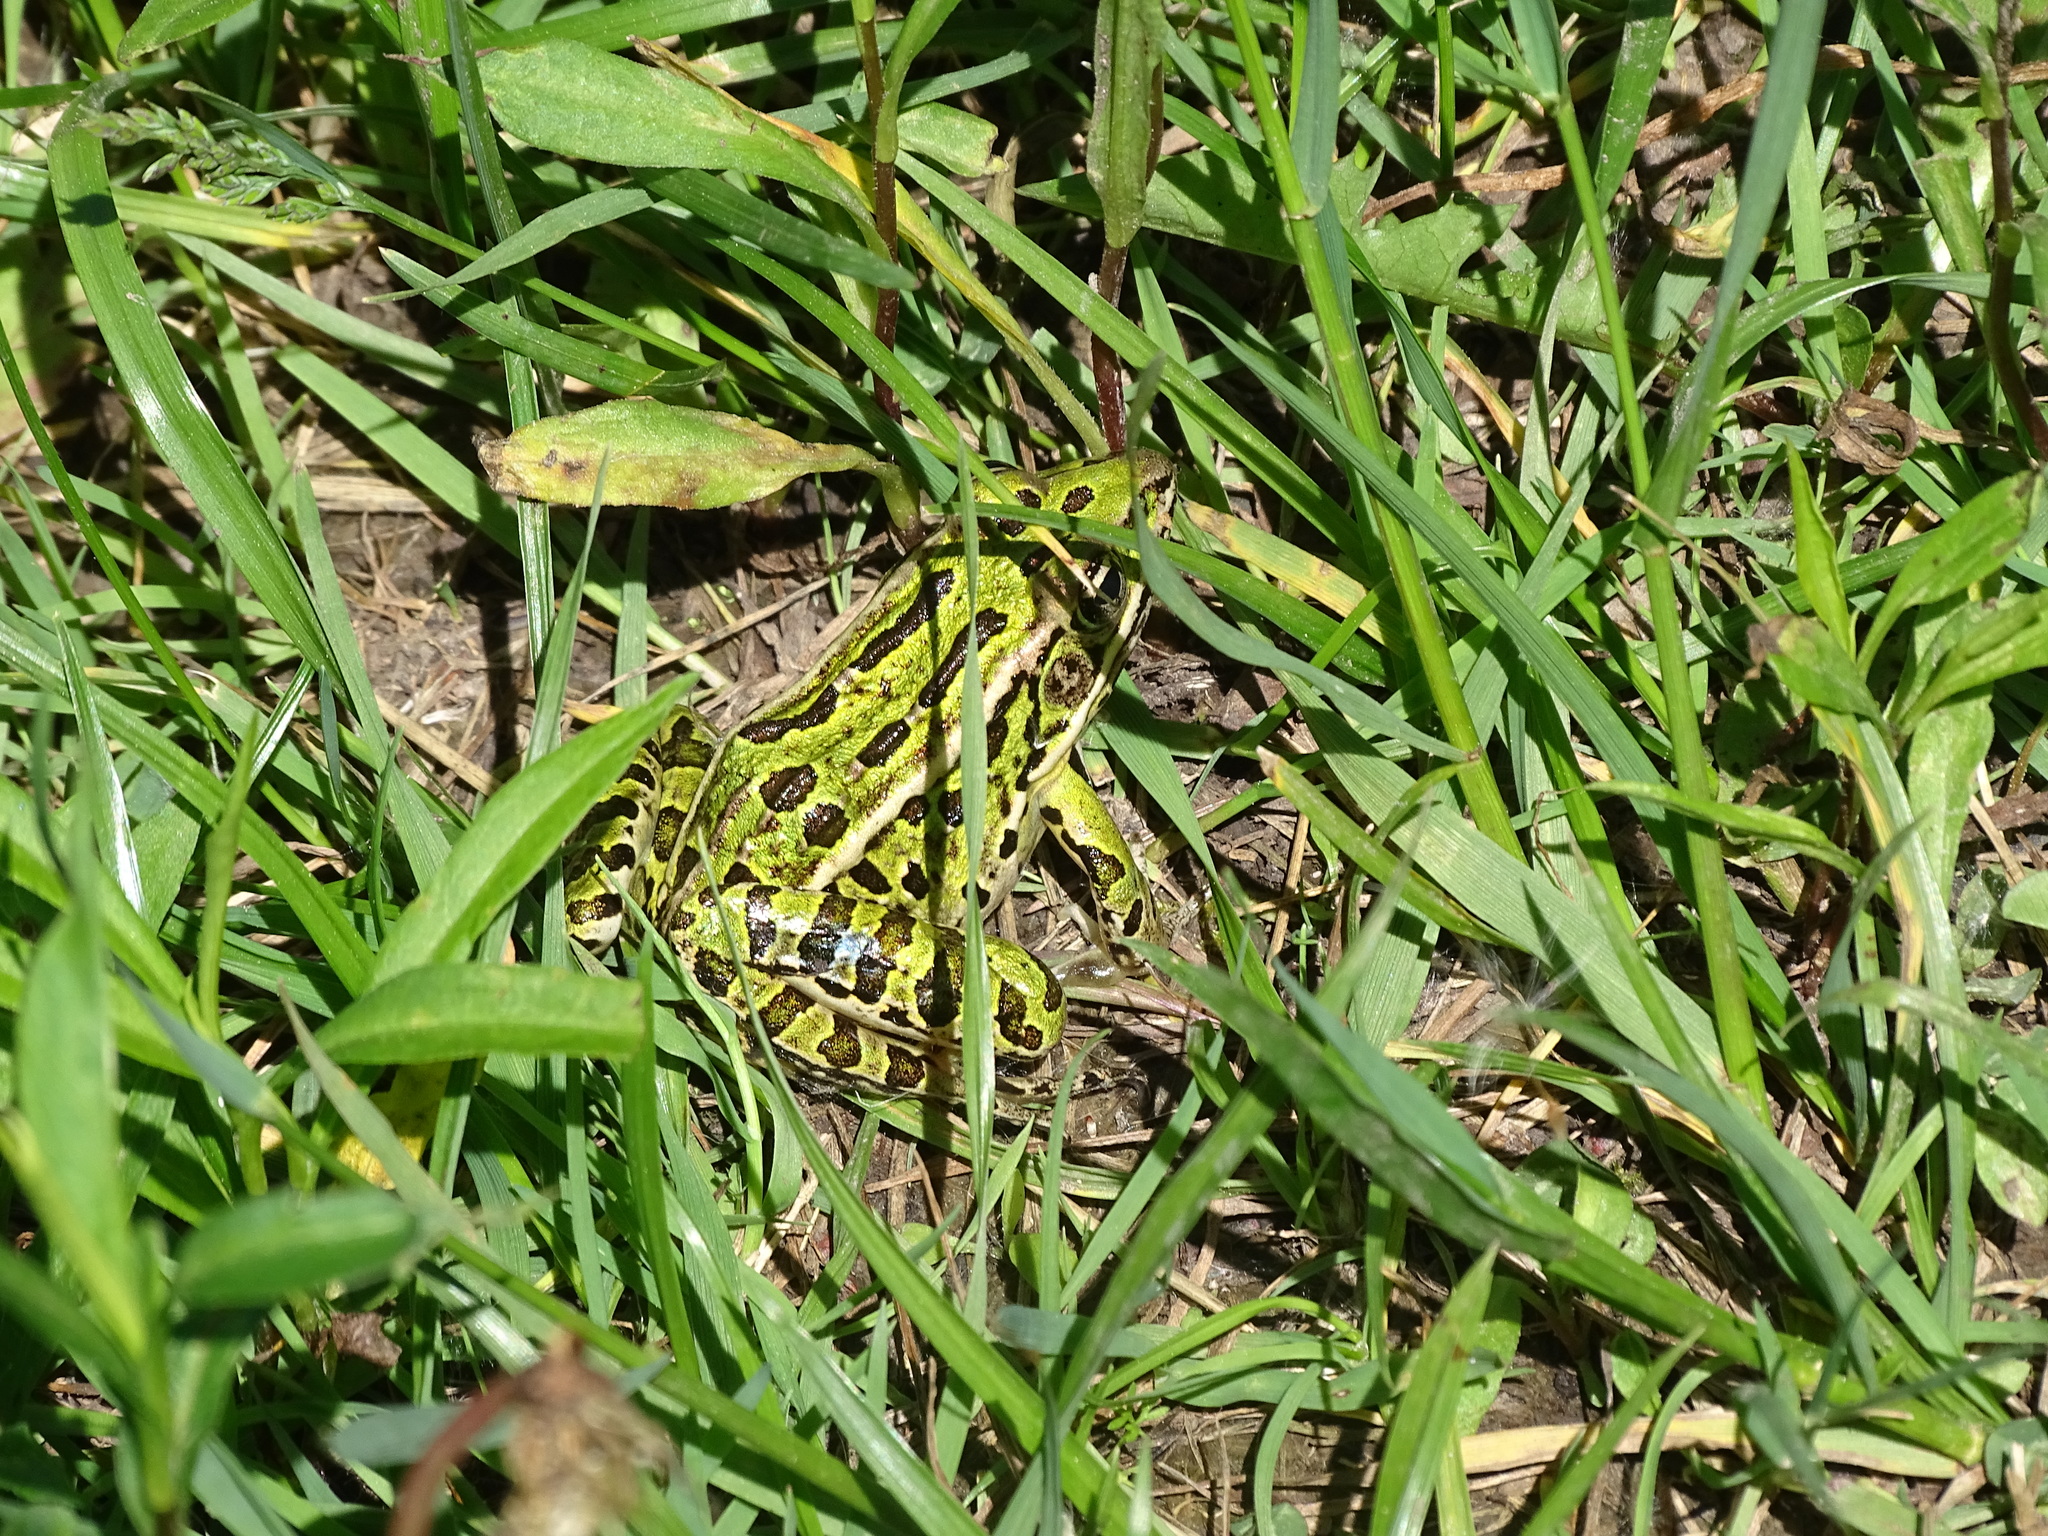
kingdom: Animalia
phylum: Chordata
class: Amphibia
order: Anura
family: Ranidae
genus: Lithobates
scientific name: Lithobates pipiens
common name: Northern leopard frog
